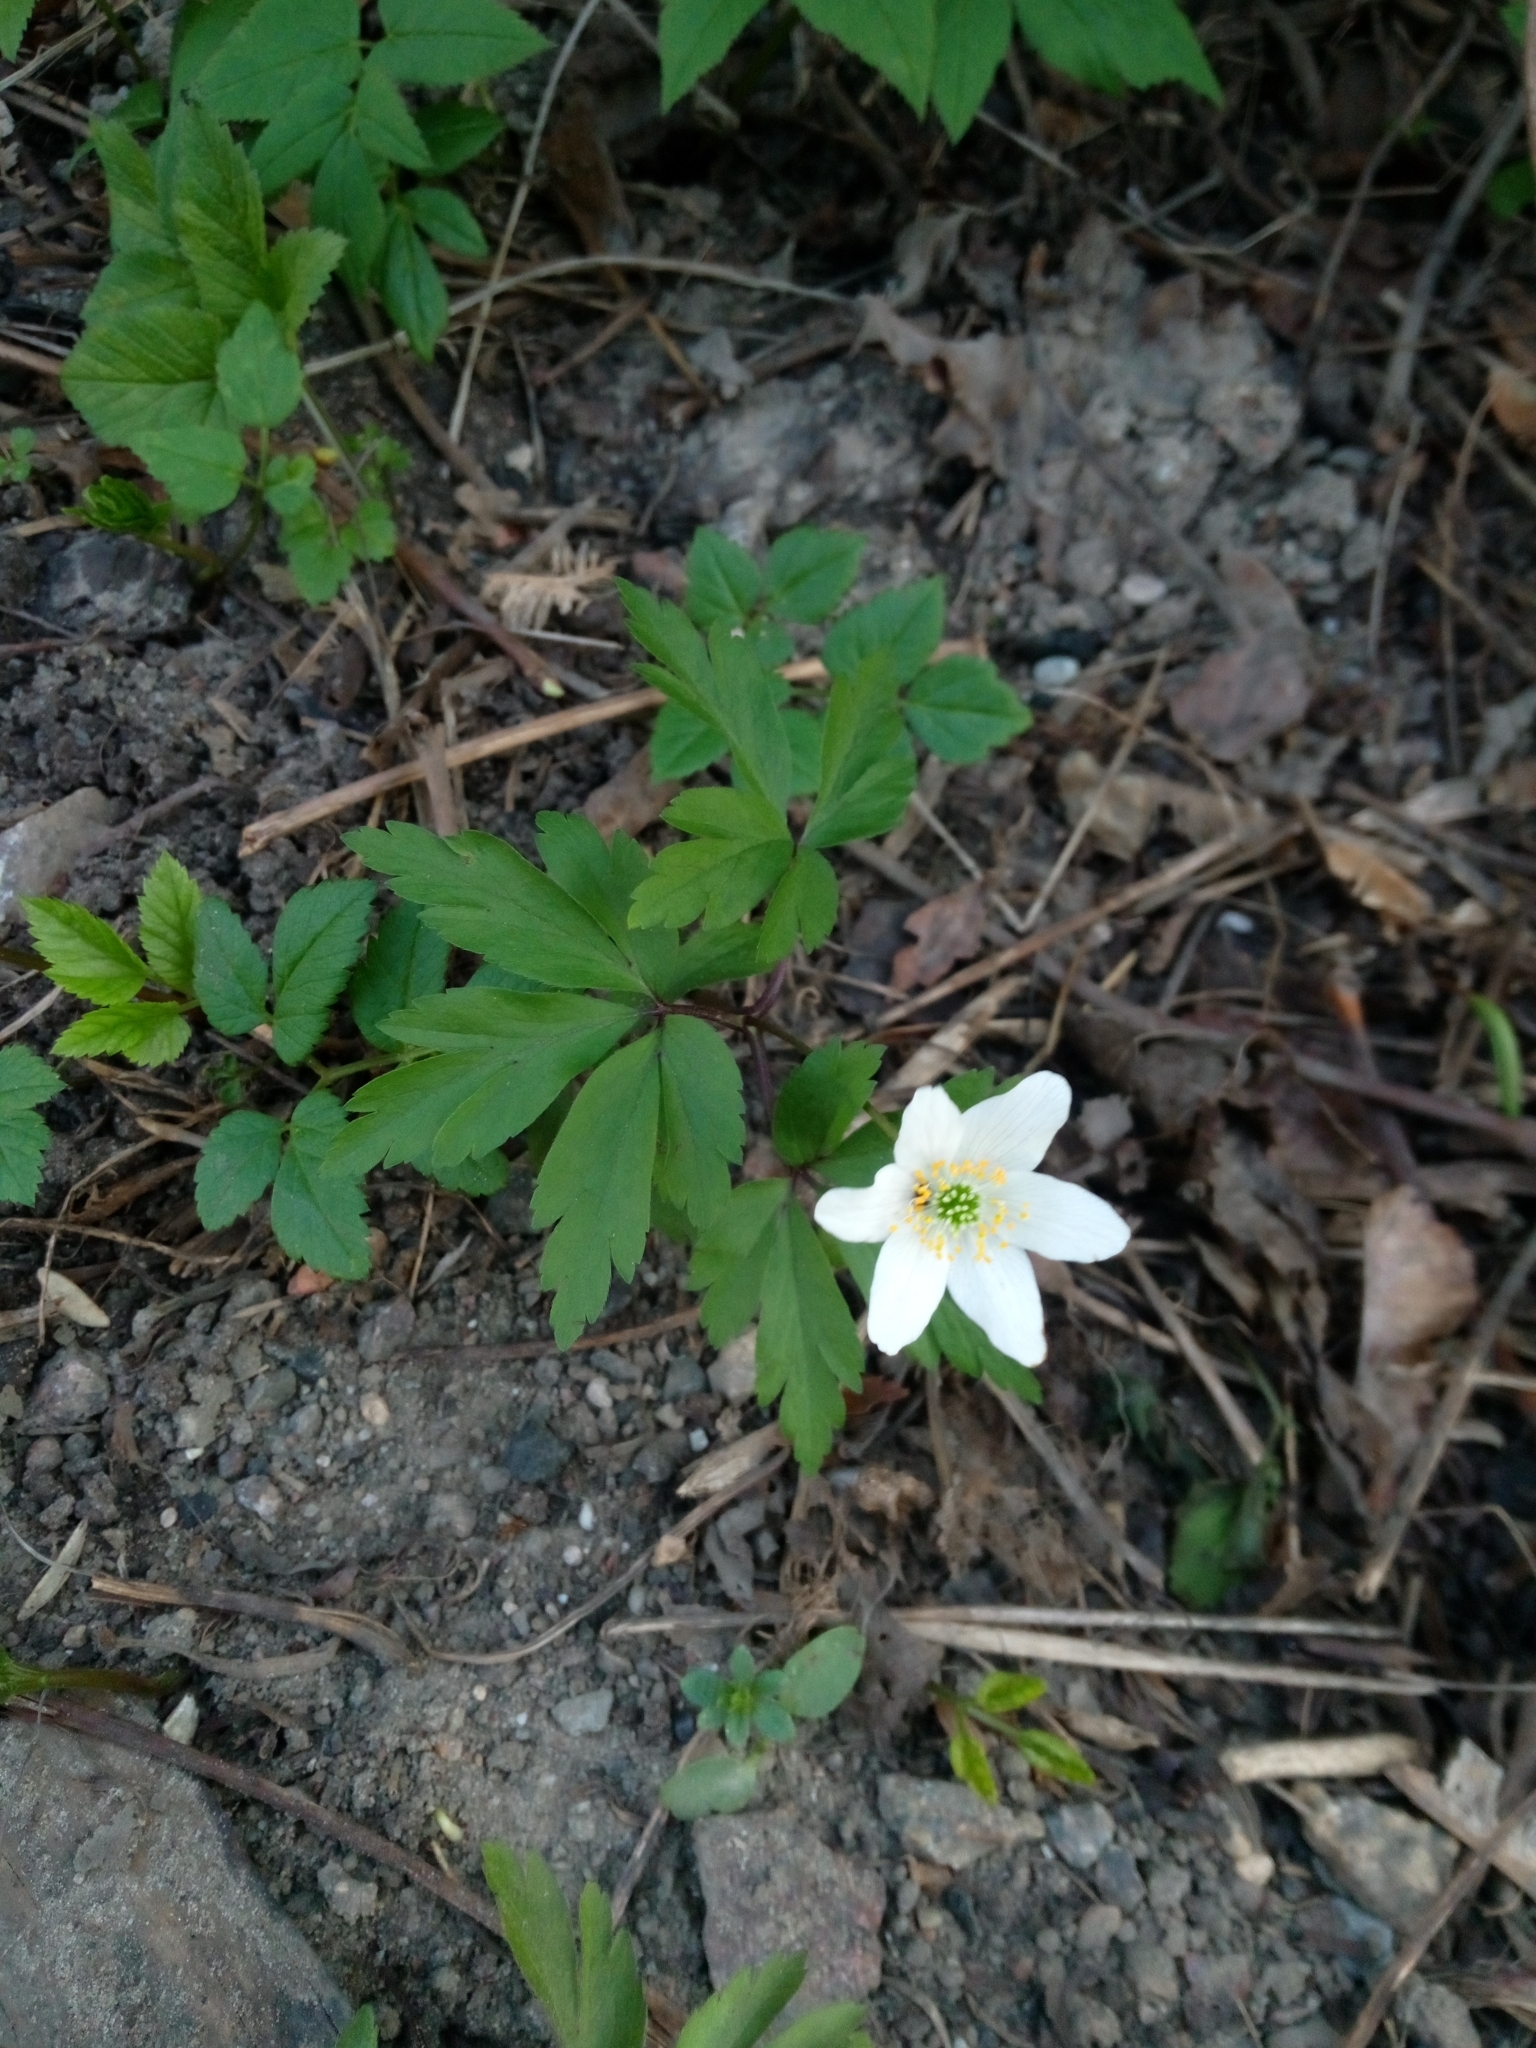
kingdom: Plantae
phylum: Tracheophyta
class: Magnoliopsida
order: Ranunculales
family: Ranunculaceae
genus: Anemone
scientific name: Anemone nemorosa
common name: Wood anemone
